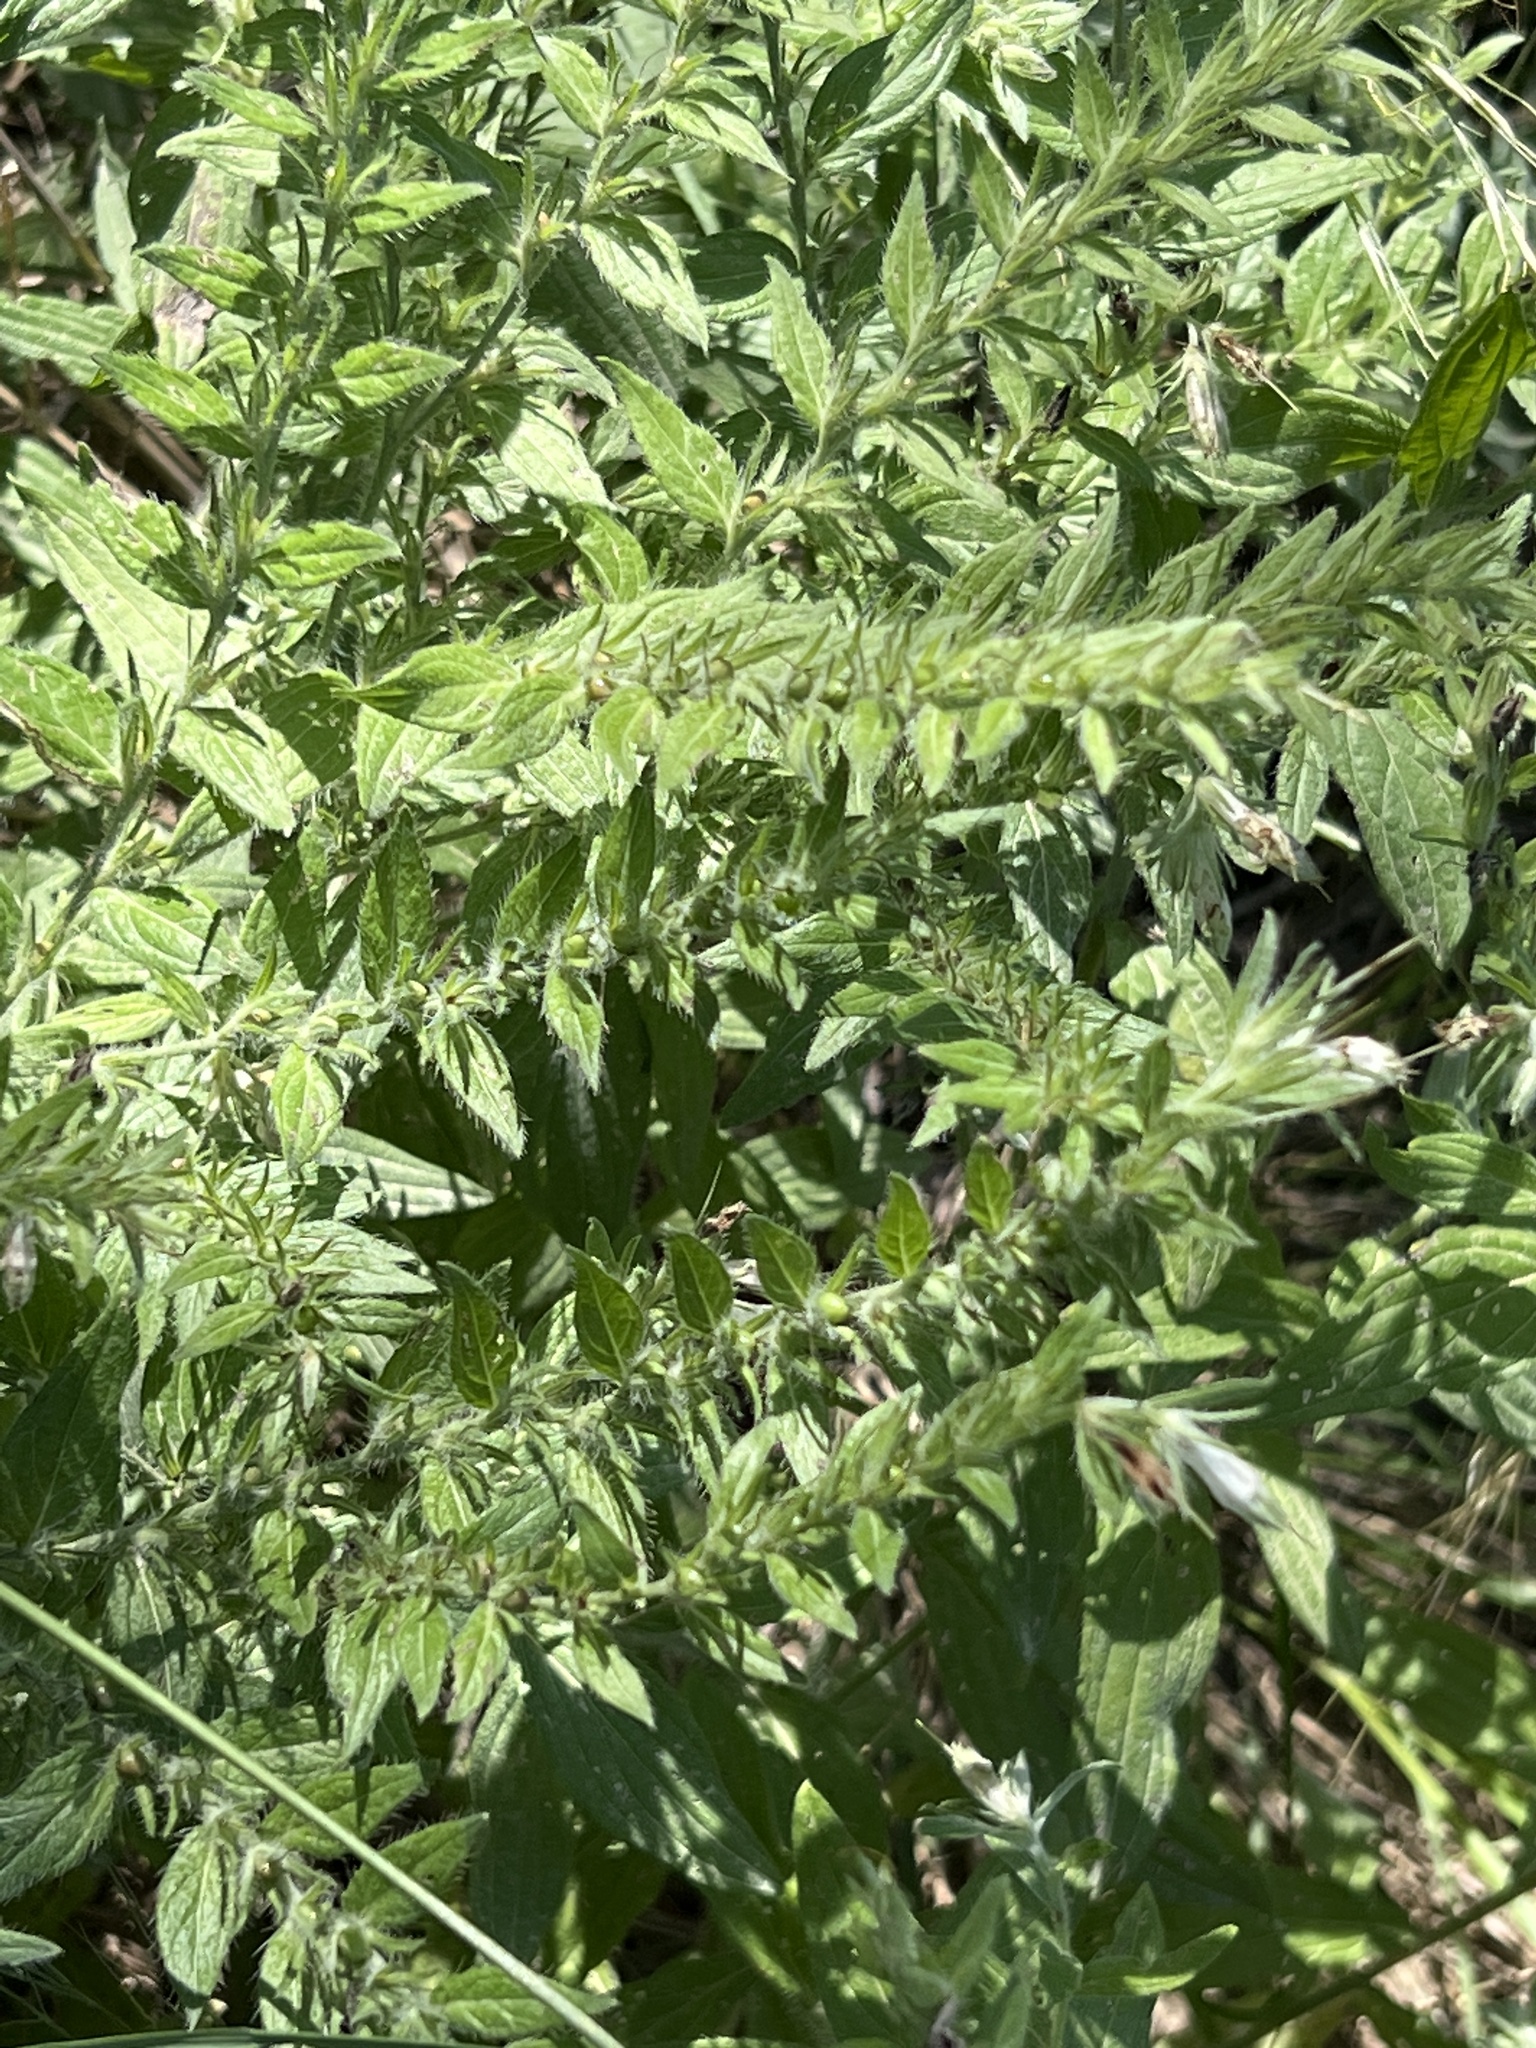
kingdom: Plantae
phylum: Tracheophyta
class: Magnoliopsida
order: Boraginales
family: Boraginaceae
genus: Lithospermum
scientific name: Lithospermum caroliniense
